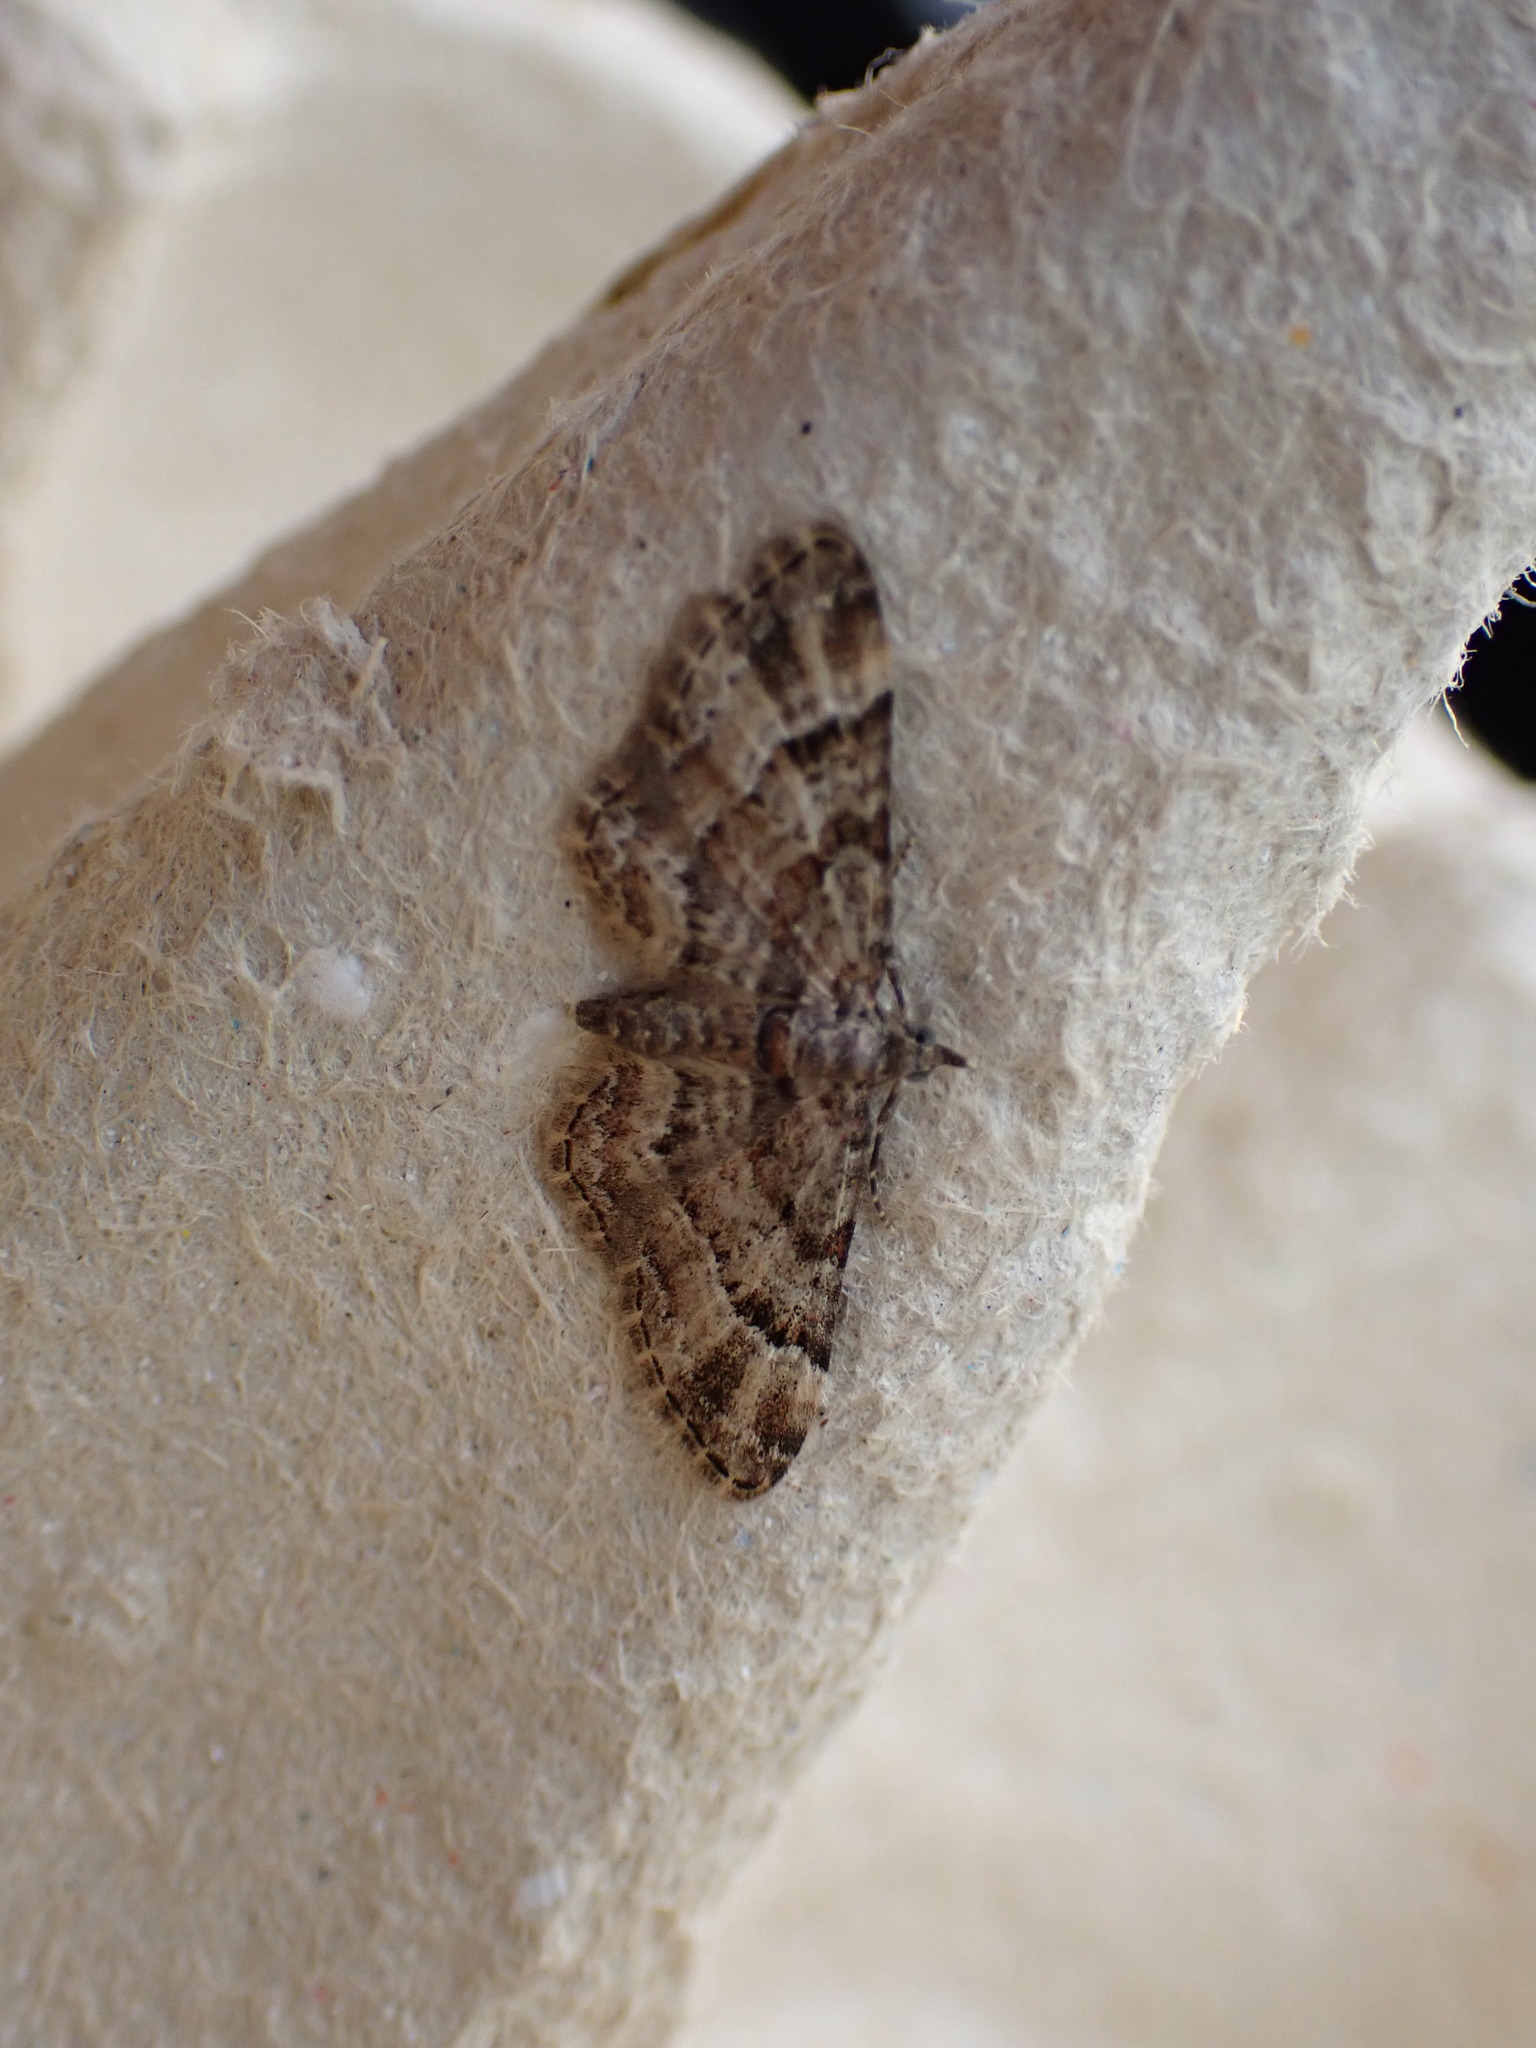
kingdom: Animalia
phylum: Arthropoda
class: Insecta
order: Lepidoptera
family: Geometridae
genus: Gymnoscelis
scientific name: Gymnoscelis rufifasciata
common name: Double-striped pug
